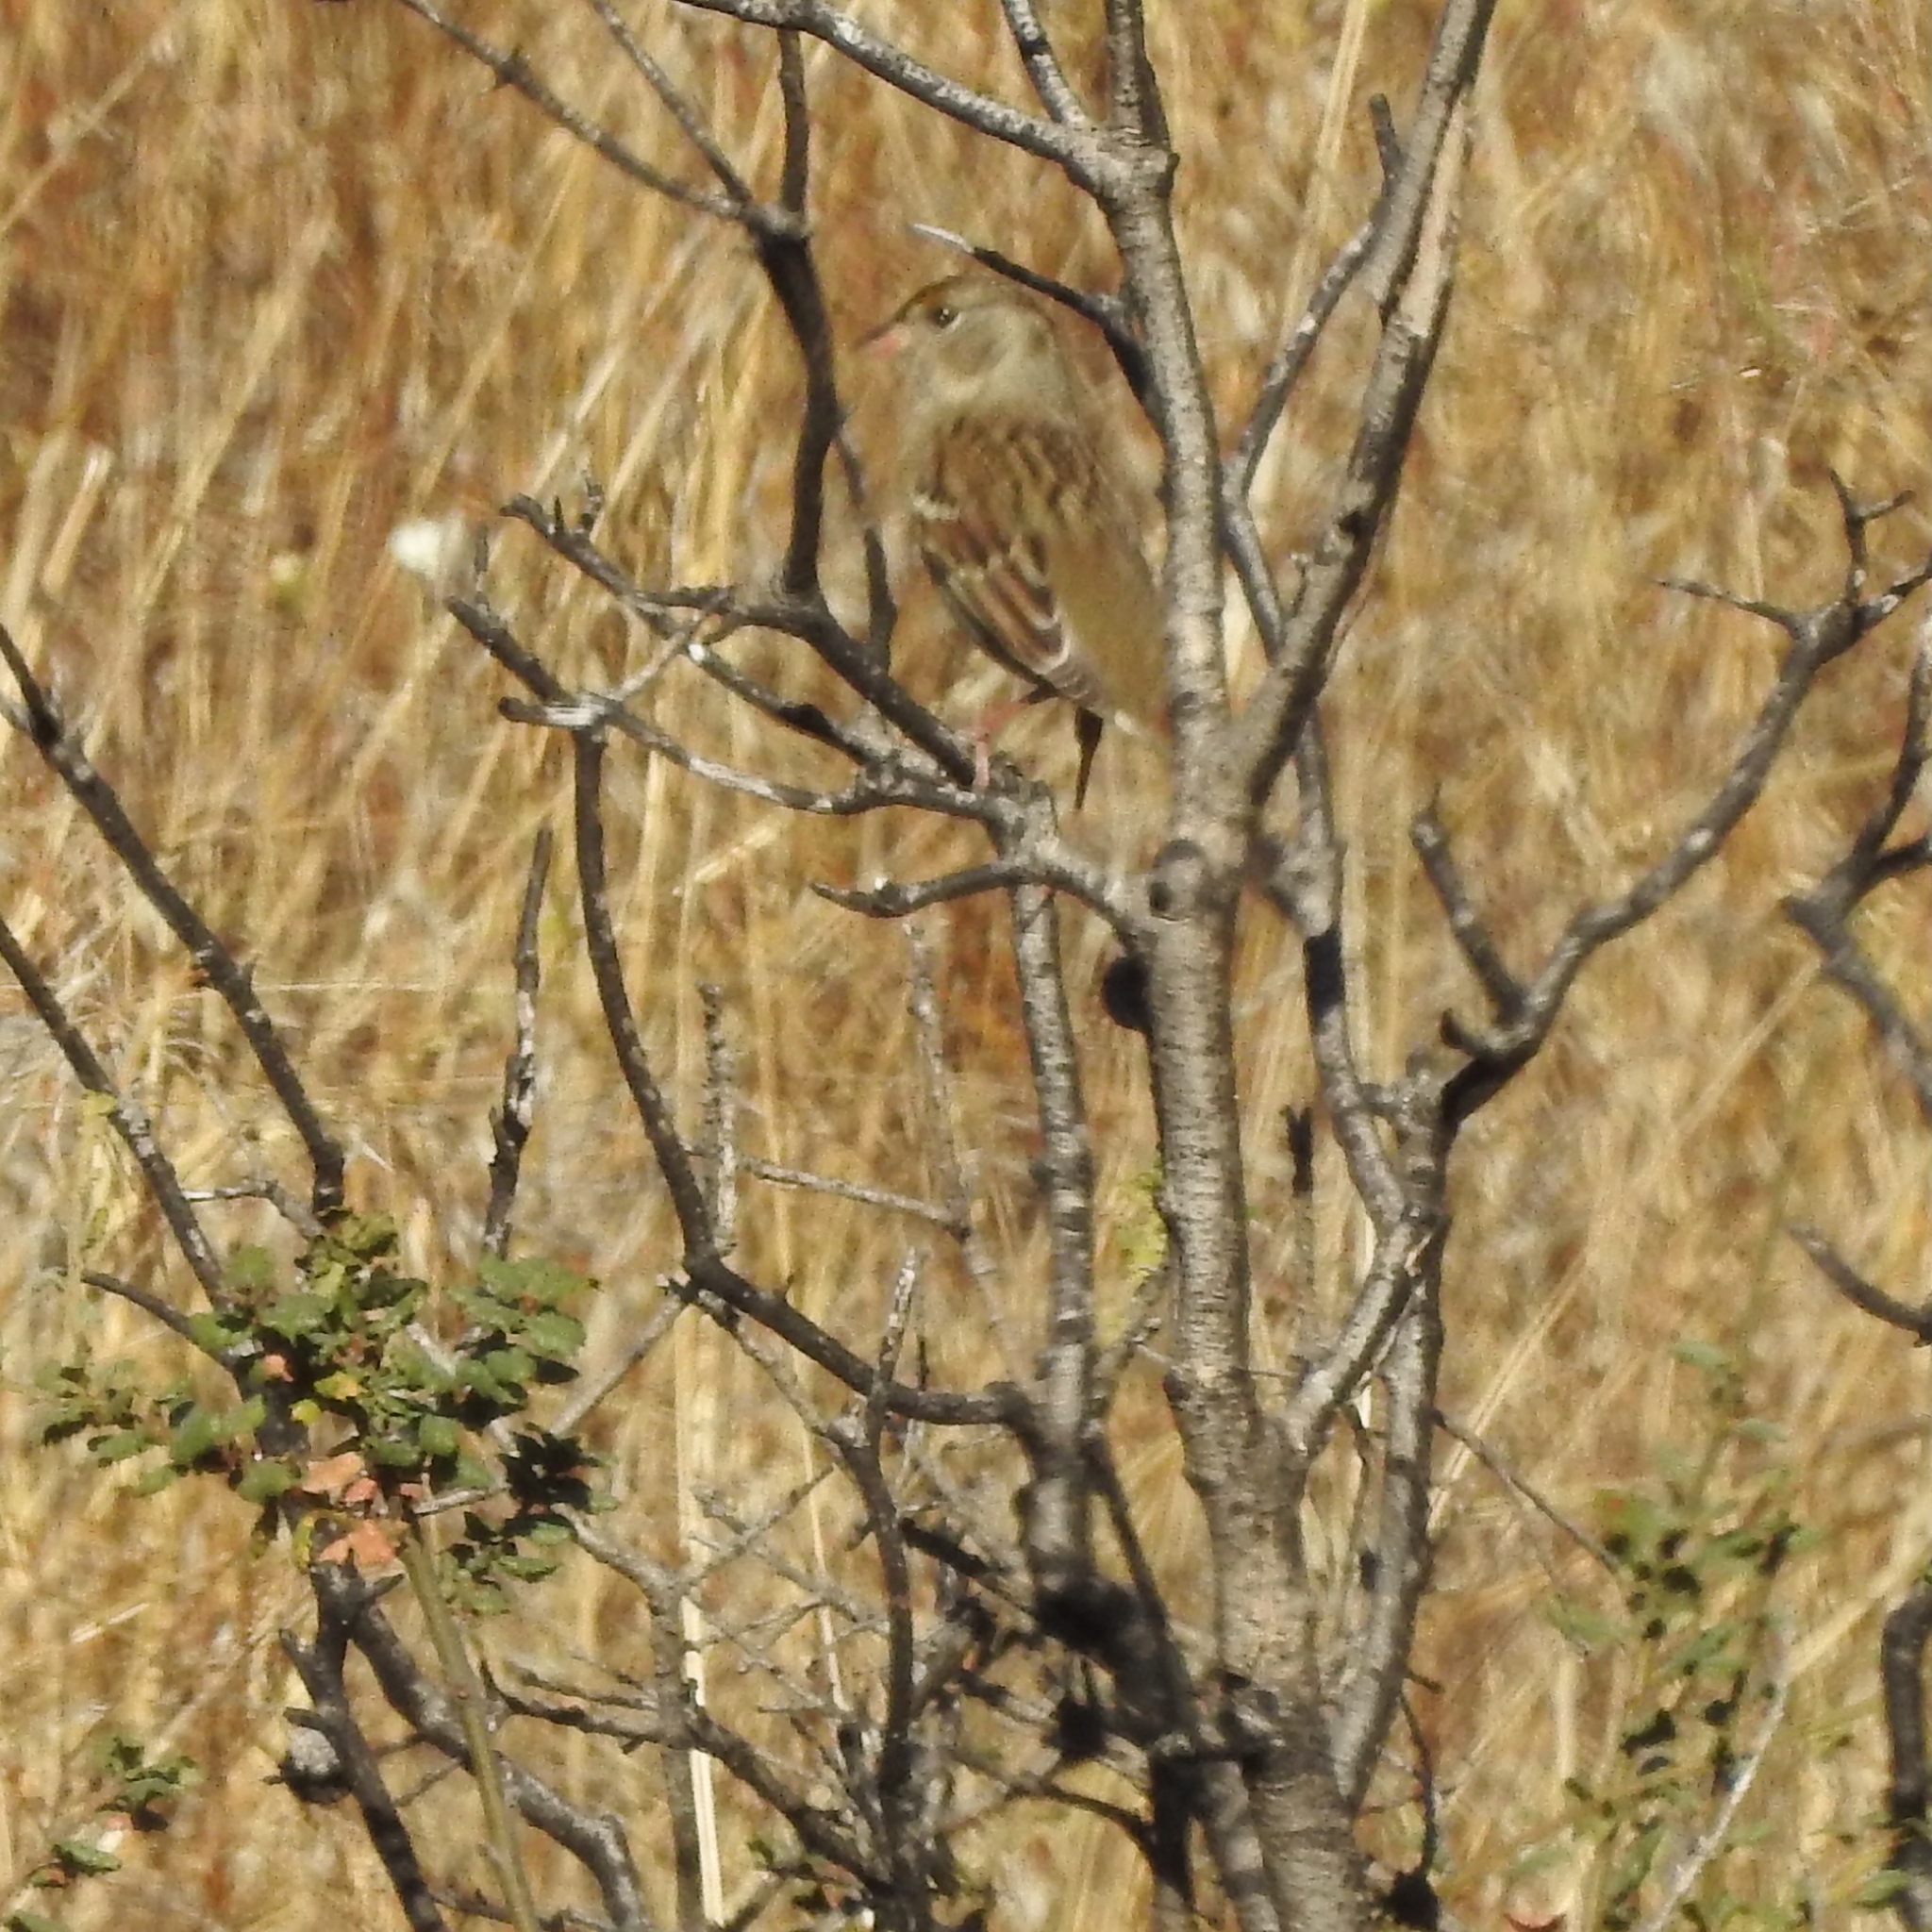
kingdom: Animalia
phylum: Chordata
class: Aves
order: Passeriformes
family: Passerellidae
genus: Zonotrichia
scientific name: Zonotrichia atricapilla
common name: Golden-crowned sparrow
